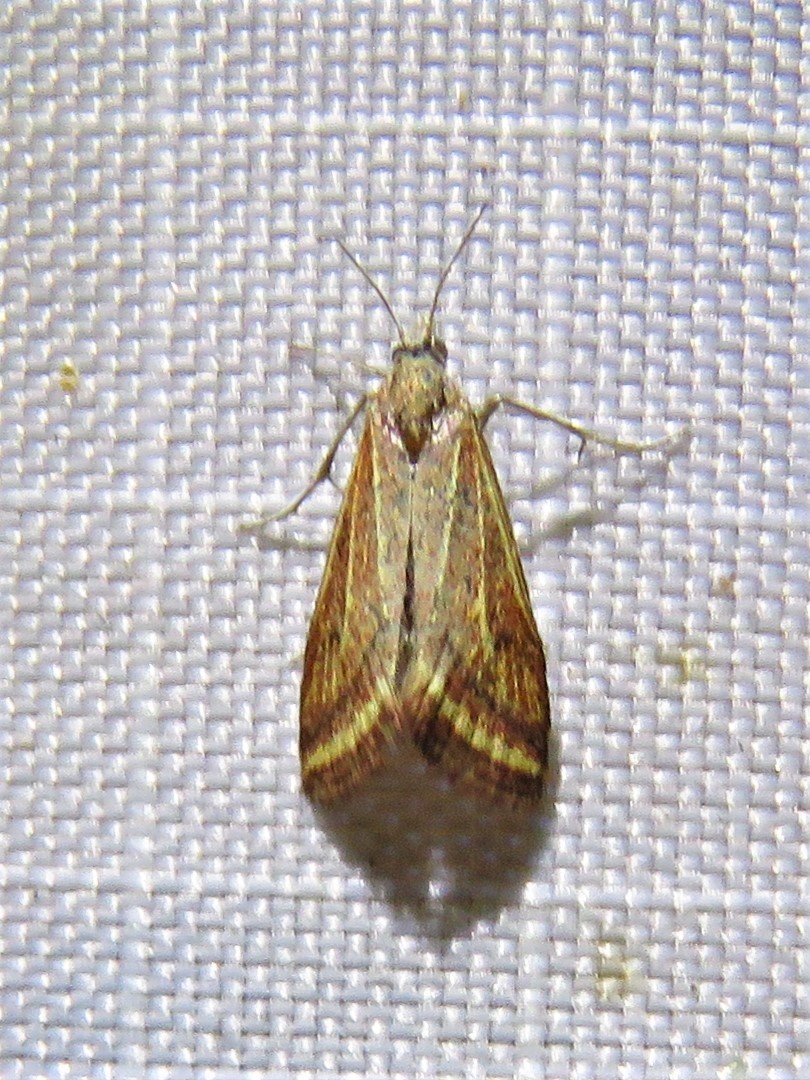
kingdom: Animalia
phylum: Arthropoda
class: Insecta
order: Lepidoptera
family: Crambidae
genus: Microtheoris
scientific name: Microtheoris ophionalis
